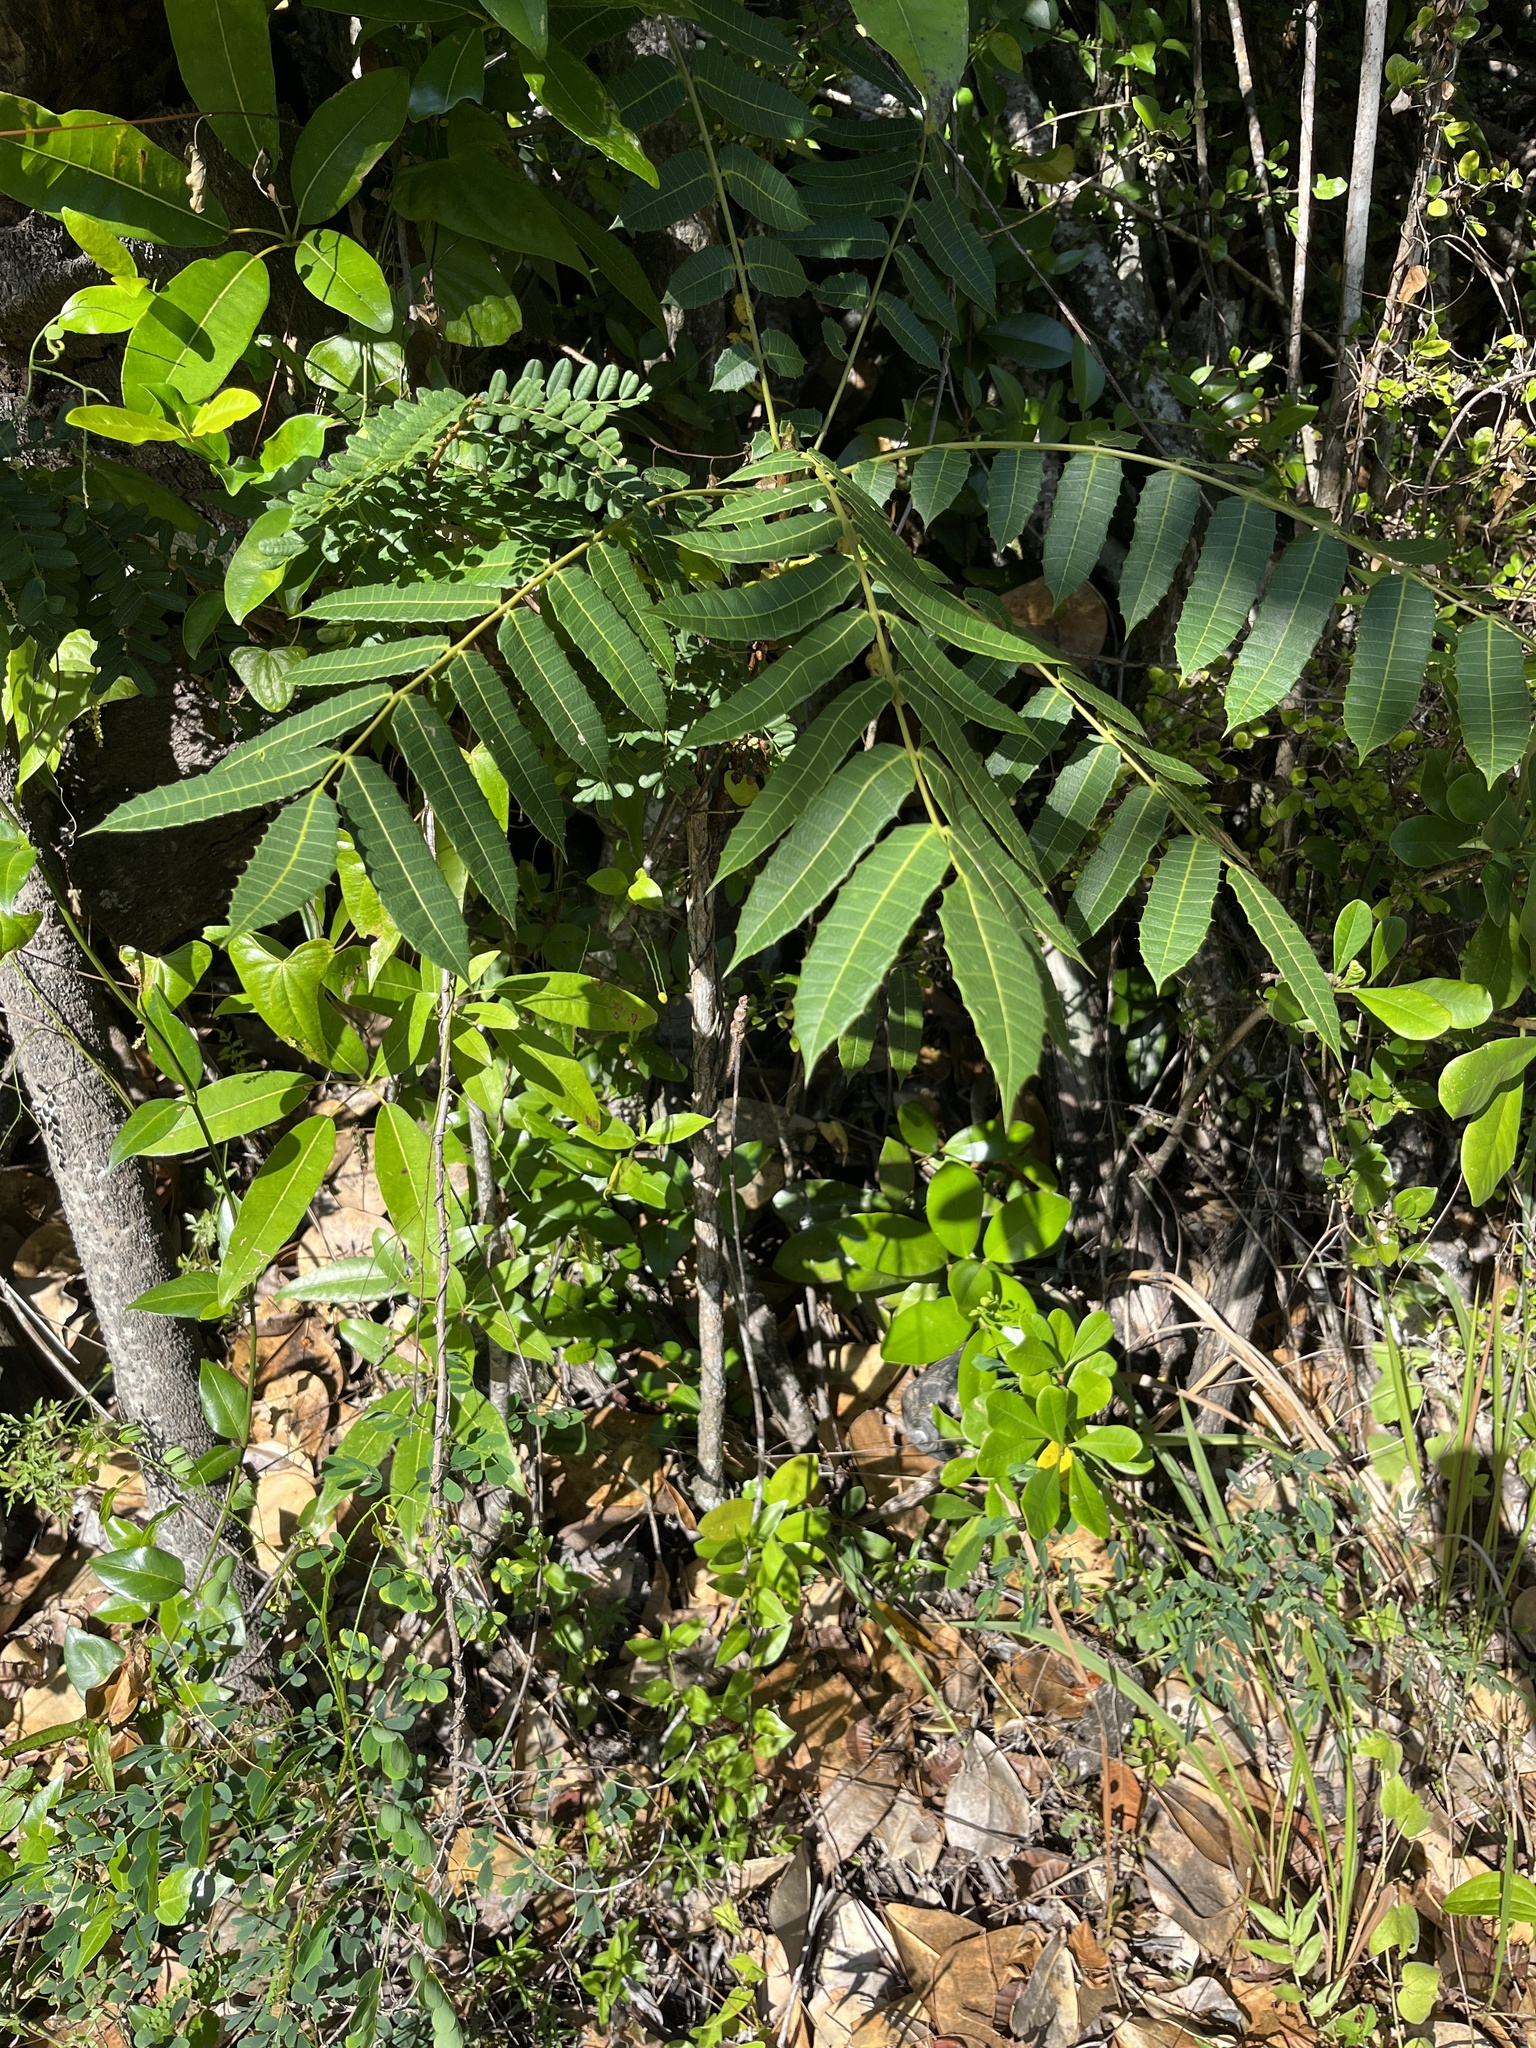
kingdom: Plantae
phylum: Tracheophyta
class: Magnoliopsida
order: Sapindales
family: Anacardiaceae
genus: Comocladia
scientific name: Comocladia glabra
